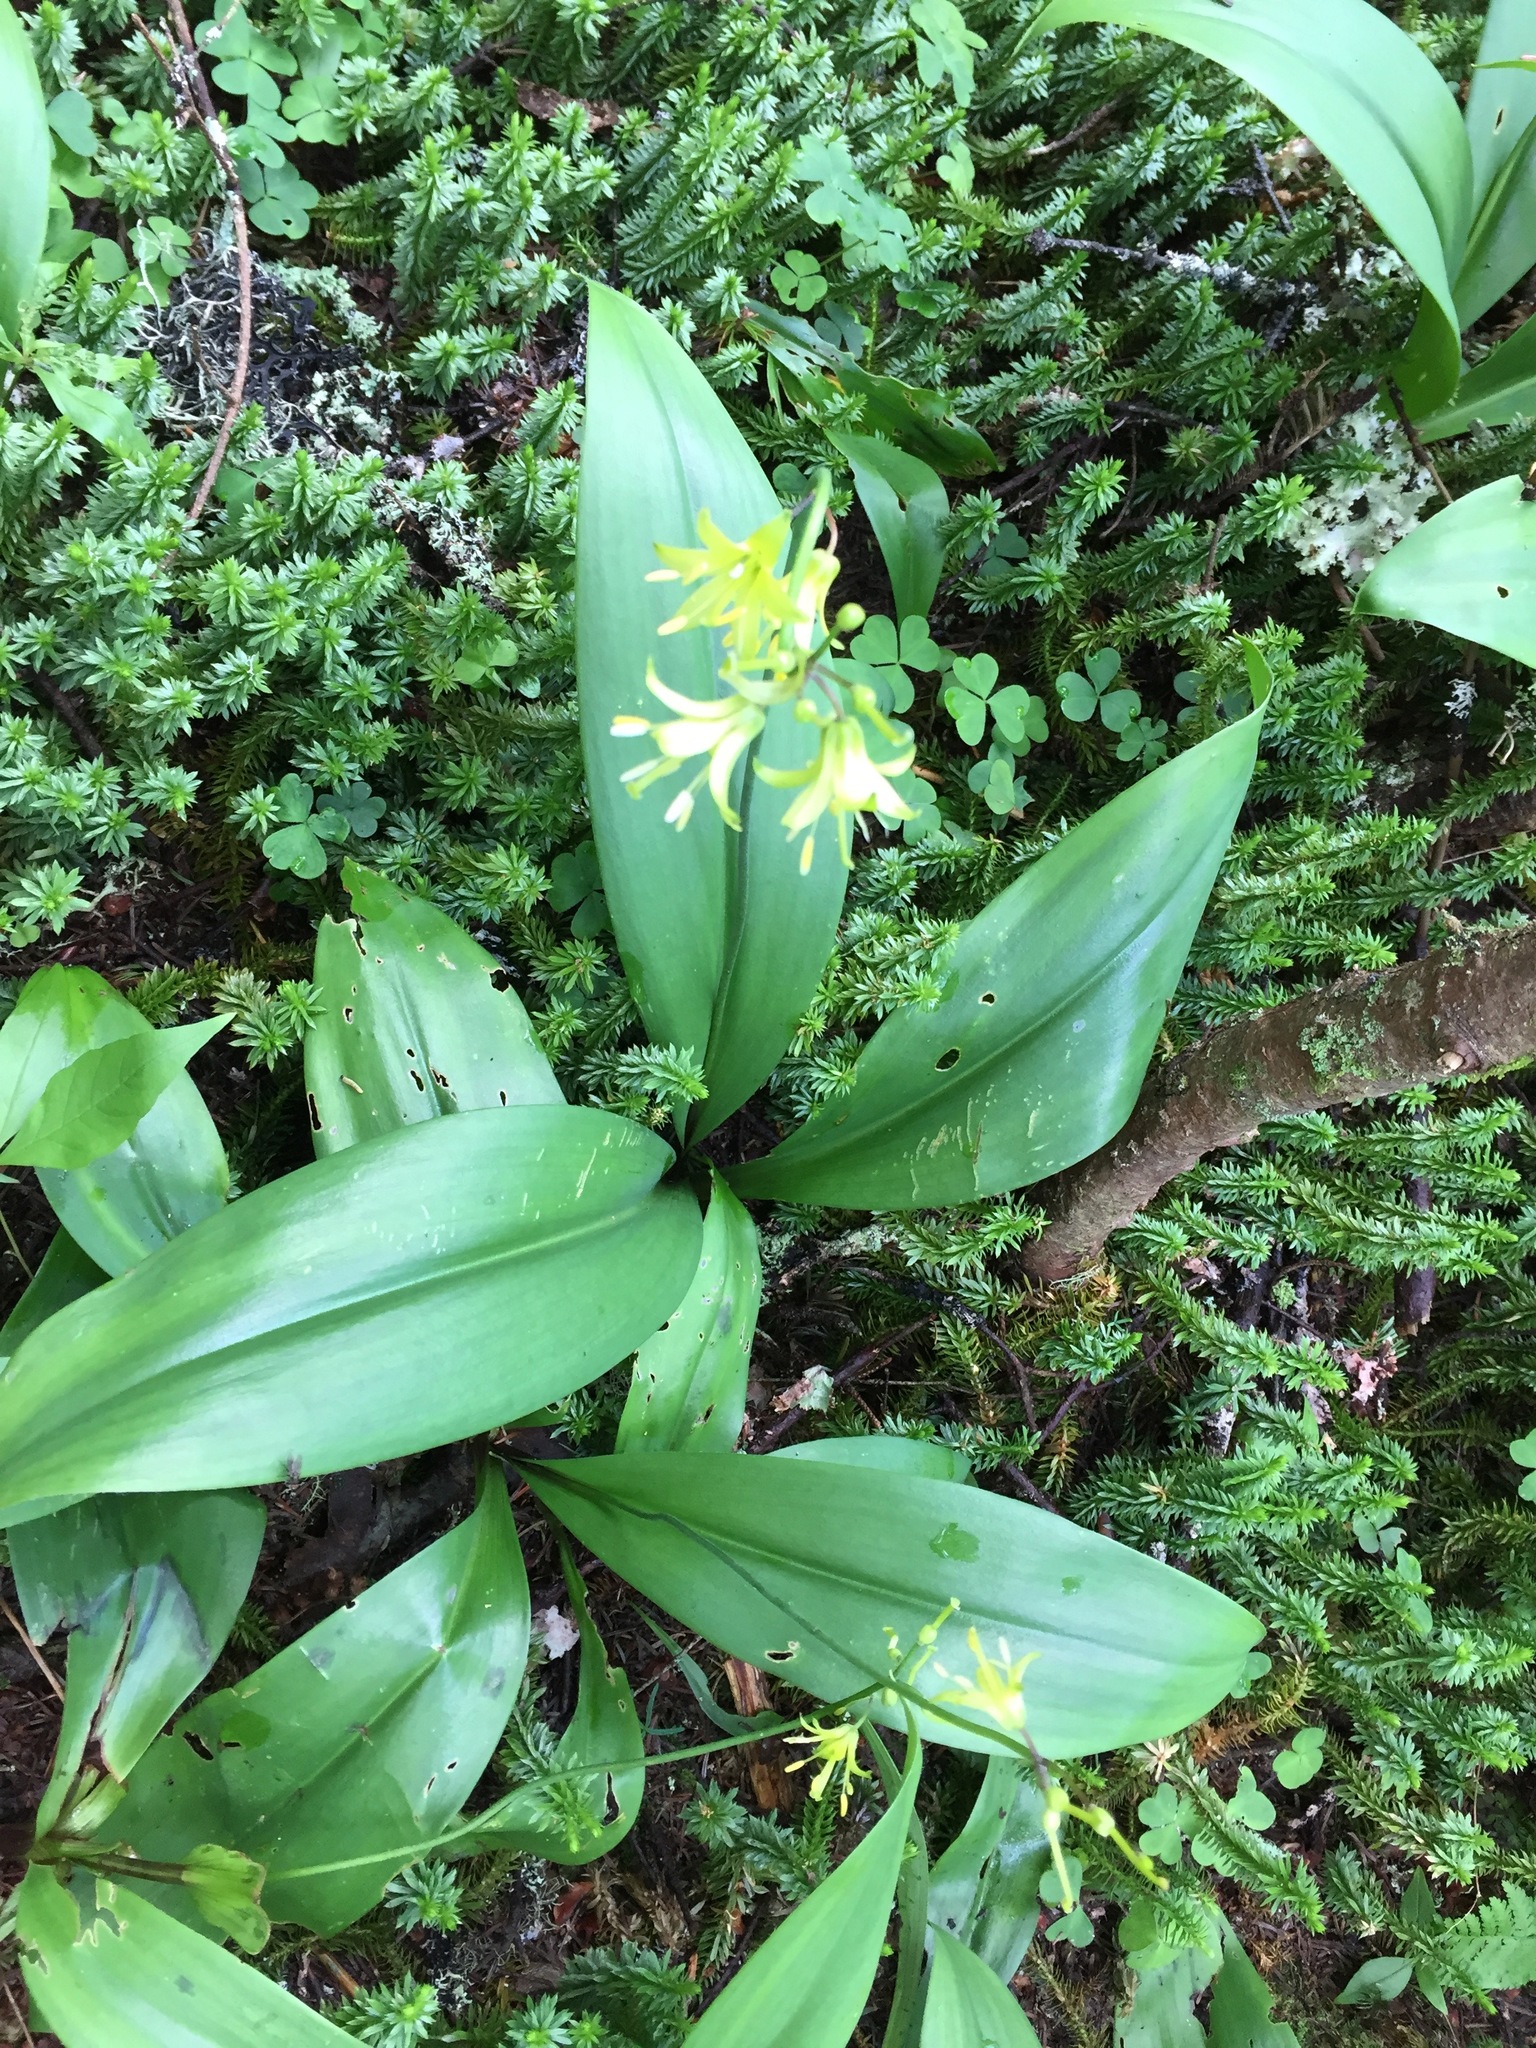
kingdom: Plantae
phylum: Tracheophyta
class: Liliopsida
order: Liliales
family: Liliaceae
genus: Clintonia
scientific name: Clintonia borealis
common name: Yellow clintonia
